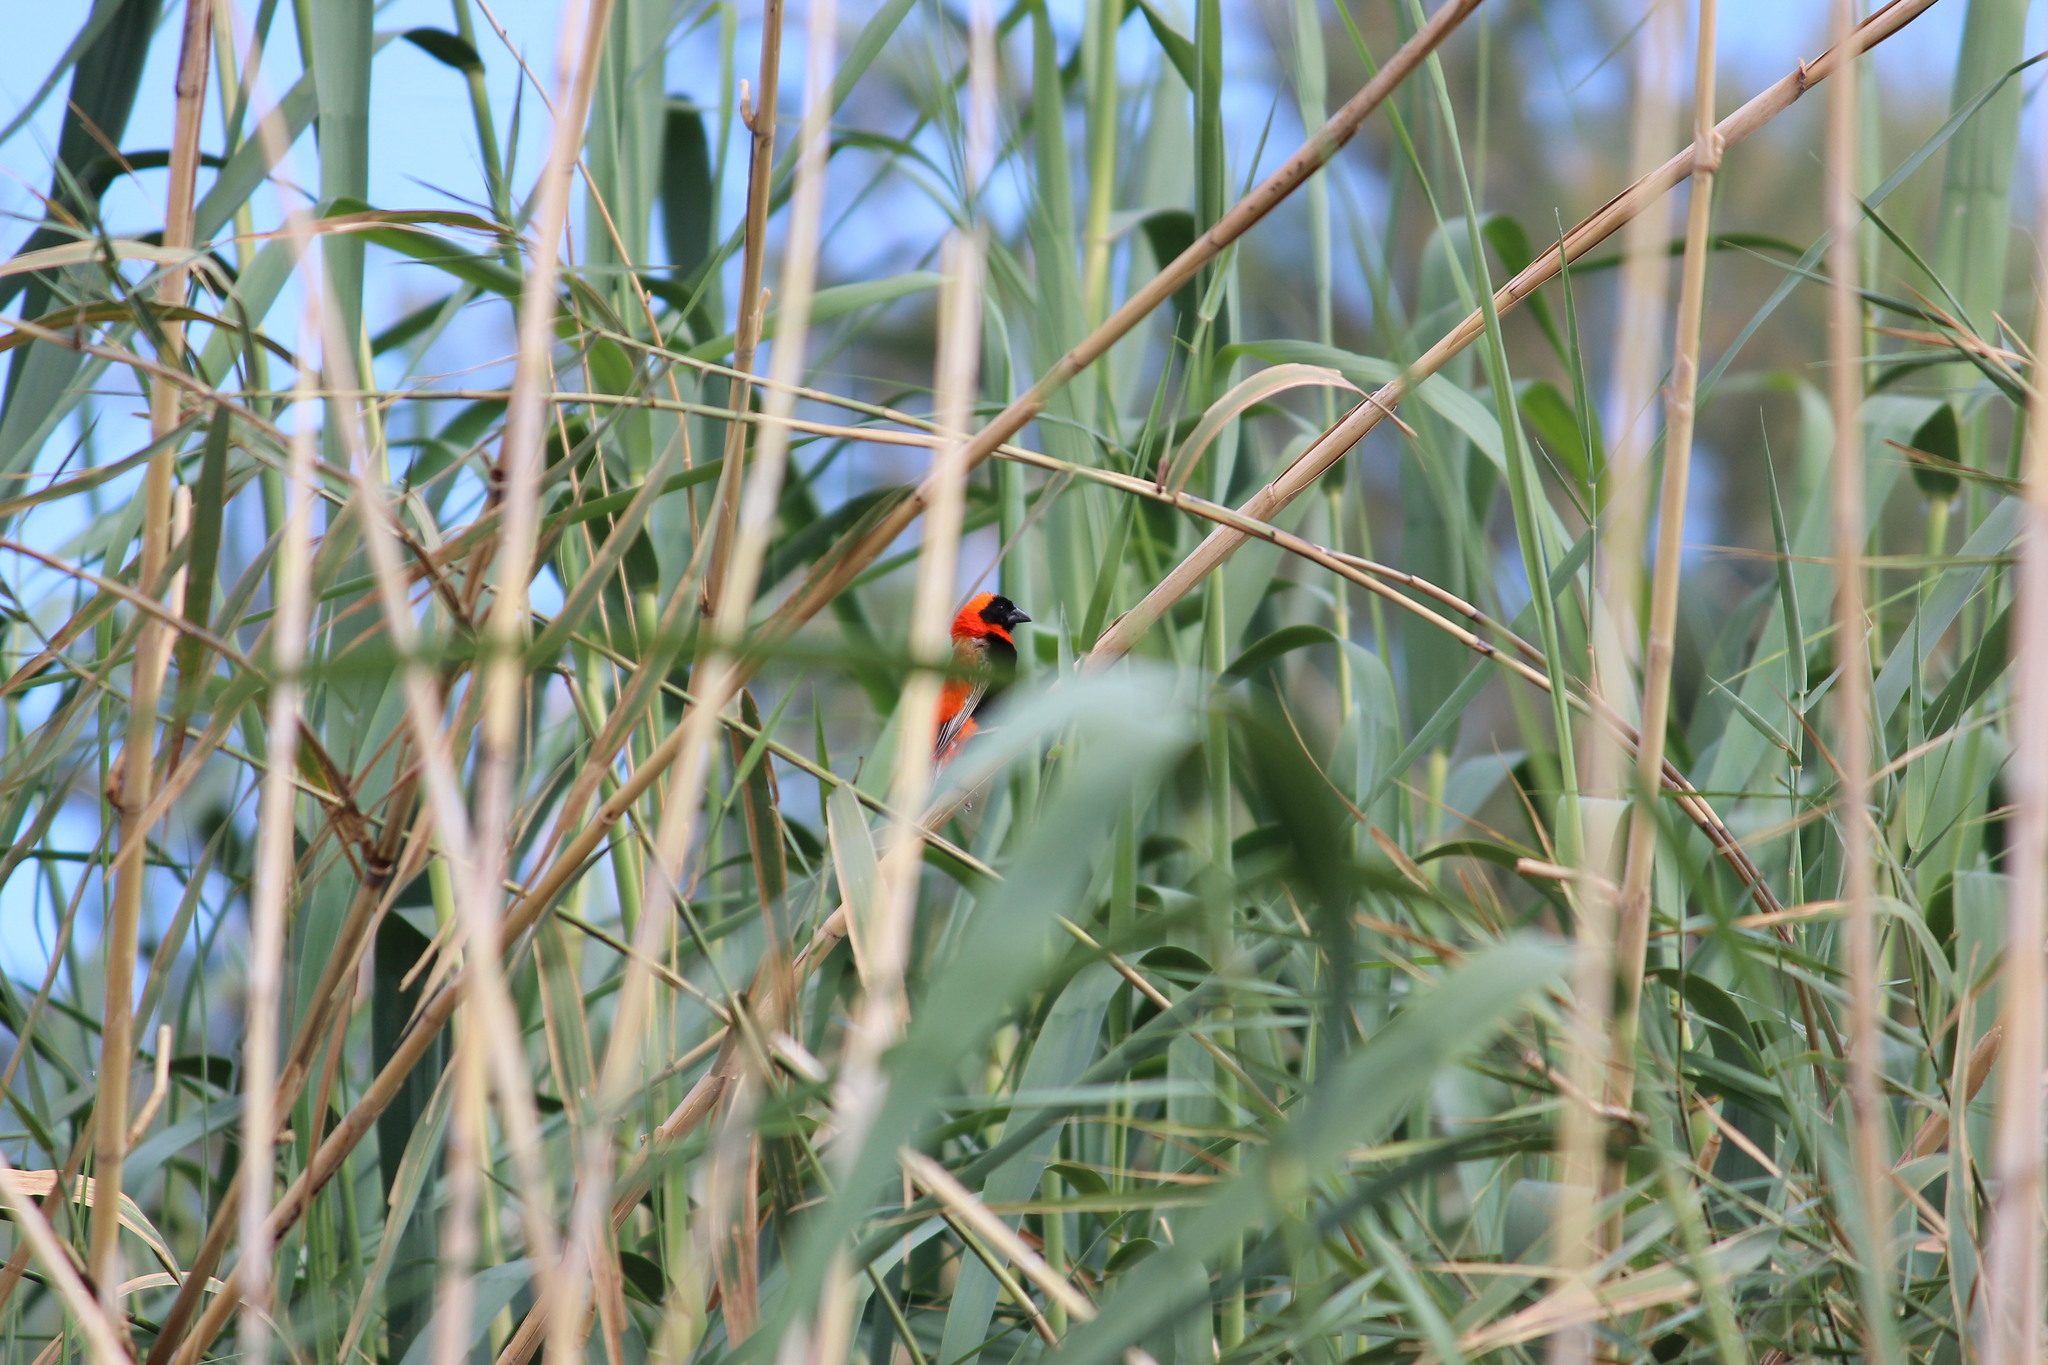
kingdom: Animalia
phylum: Chordata
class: Aves
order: Passeriformes
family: Ploceidae
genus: Euplectes
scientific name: Euplectes orix
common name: Southern red bishop
